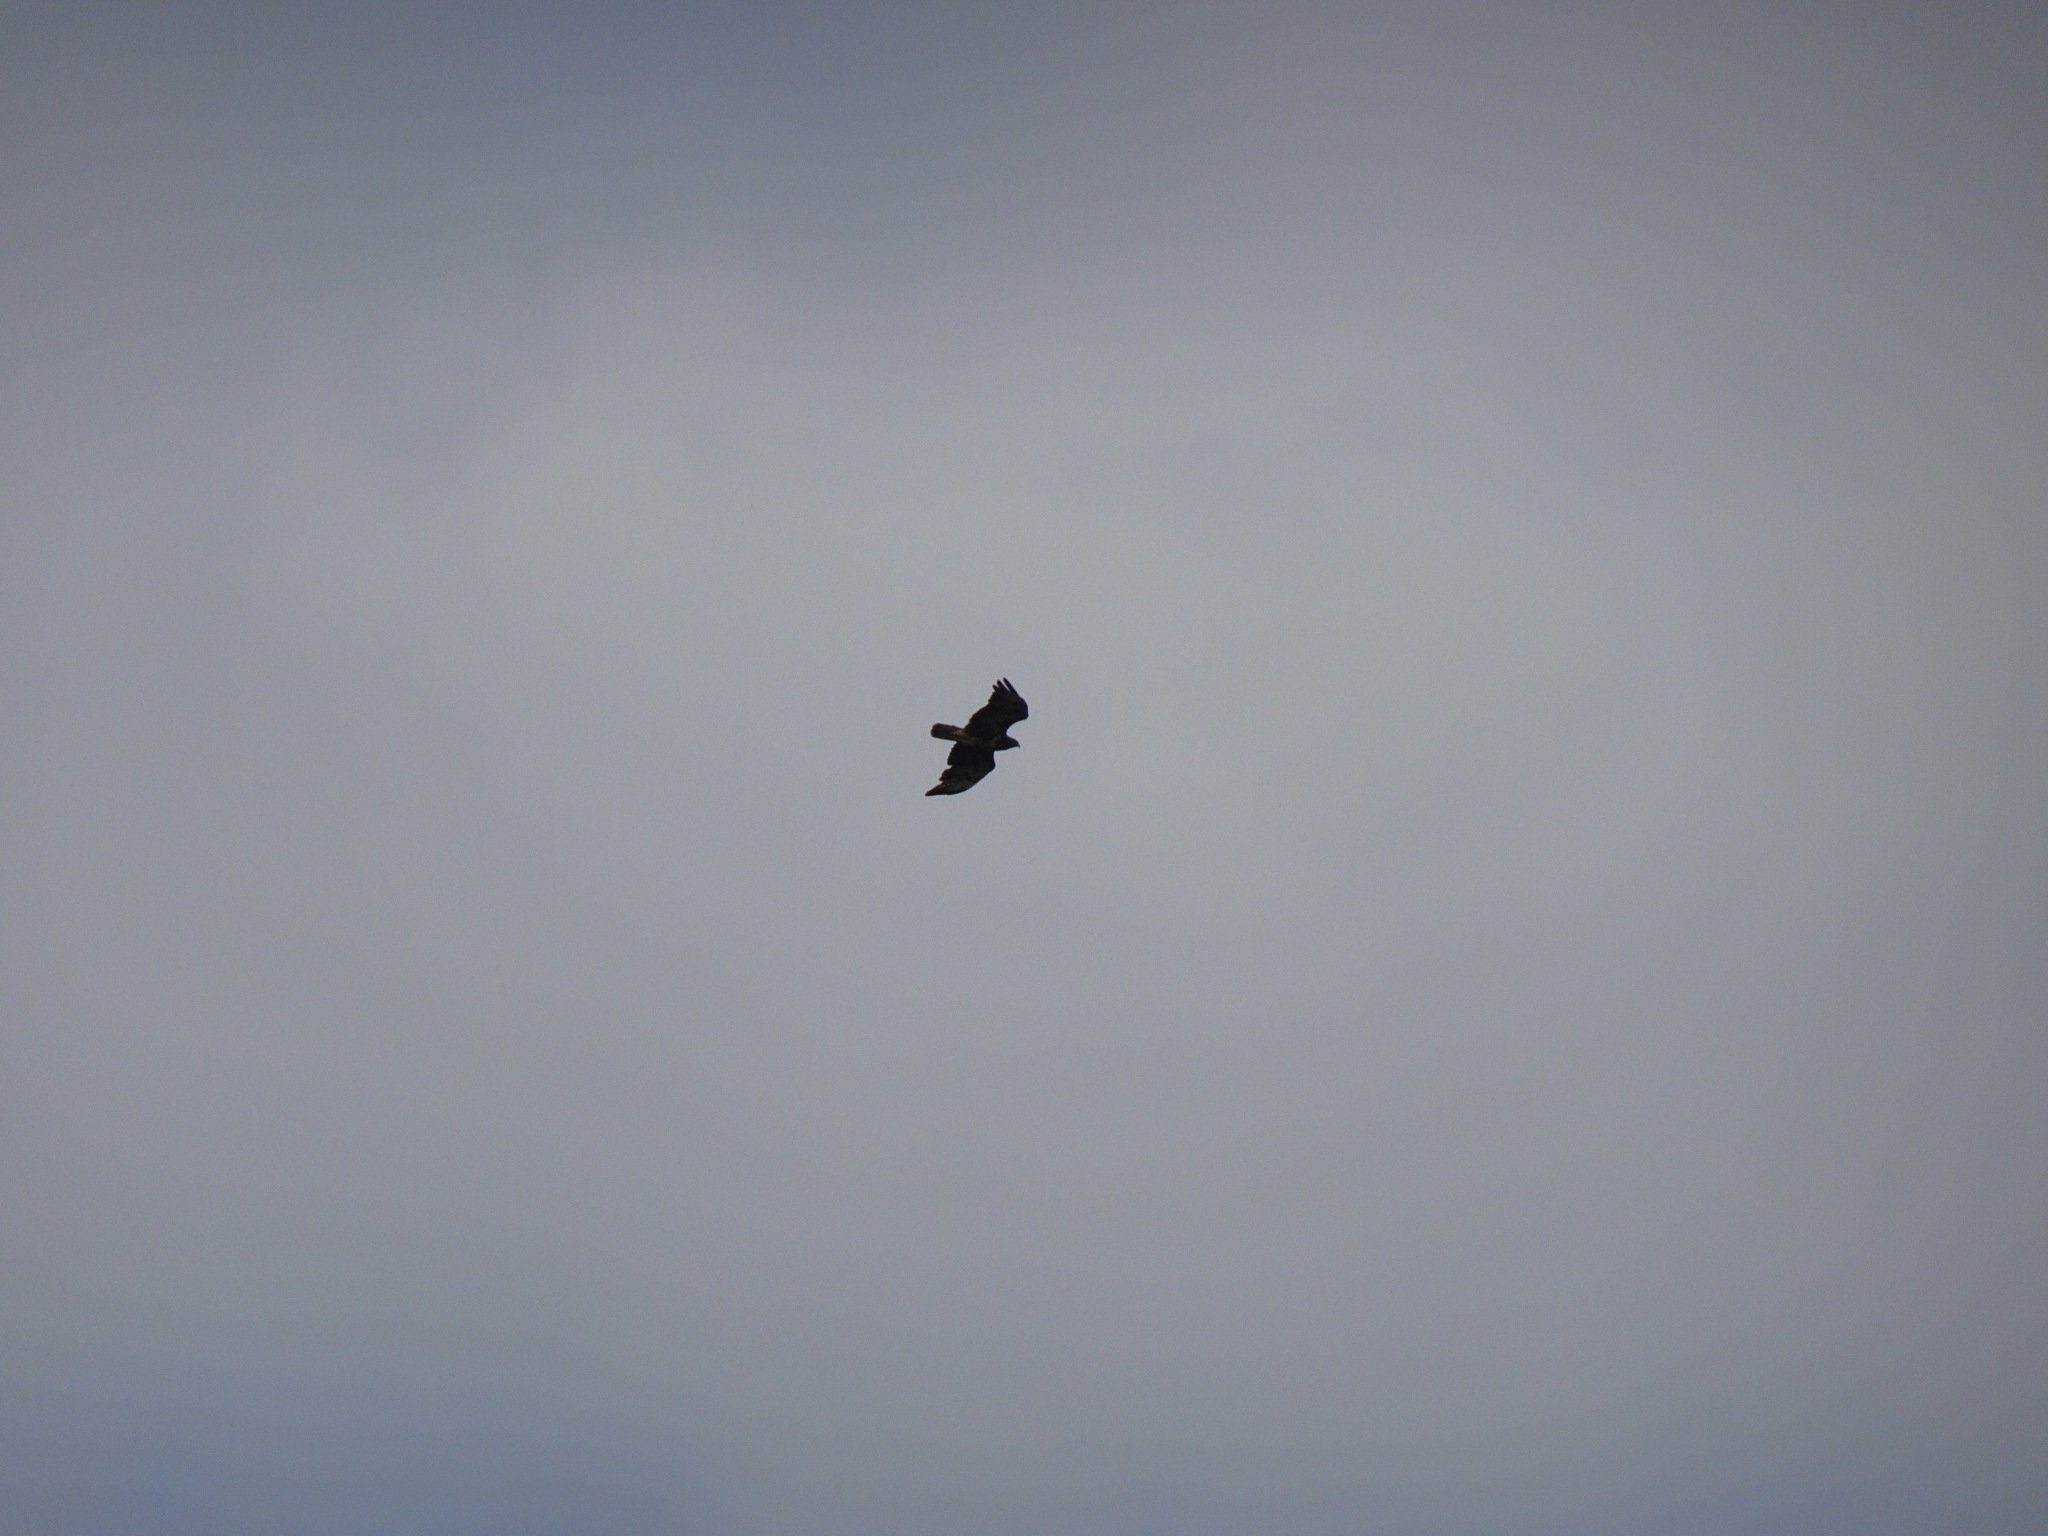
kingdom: Animalia
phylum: Chordata
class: Aves
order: Accipitriformes
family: Accipitridae
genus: Buteo
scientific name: Buteo buteo
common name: Common buzzard
